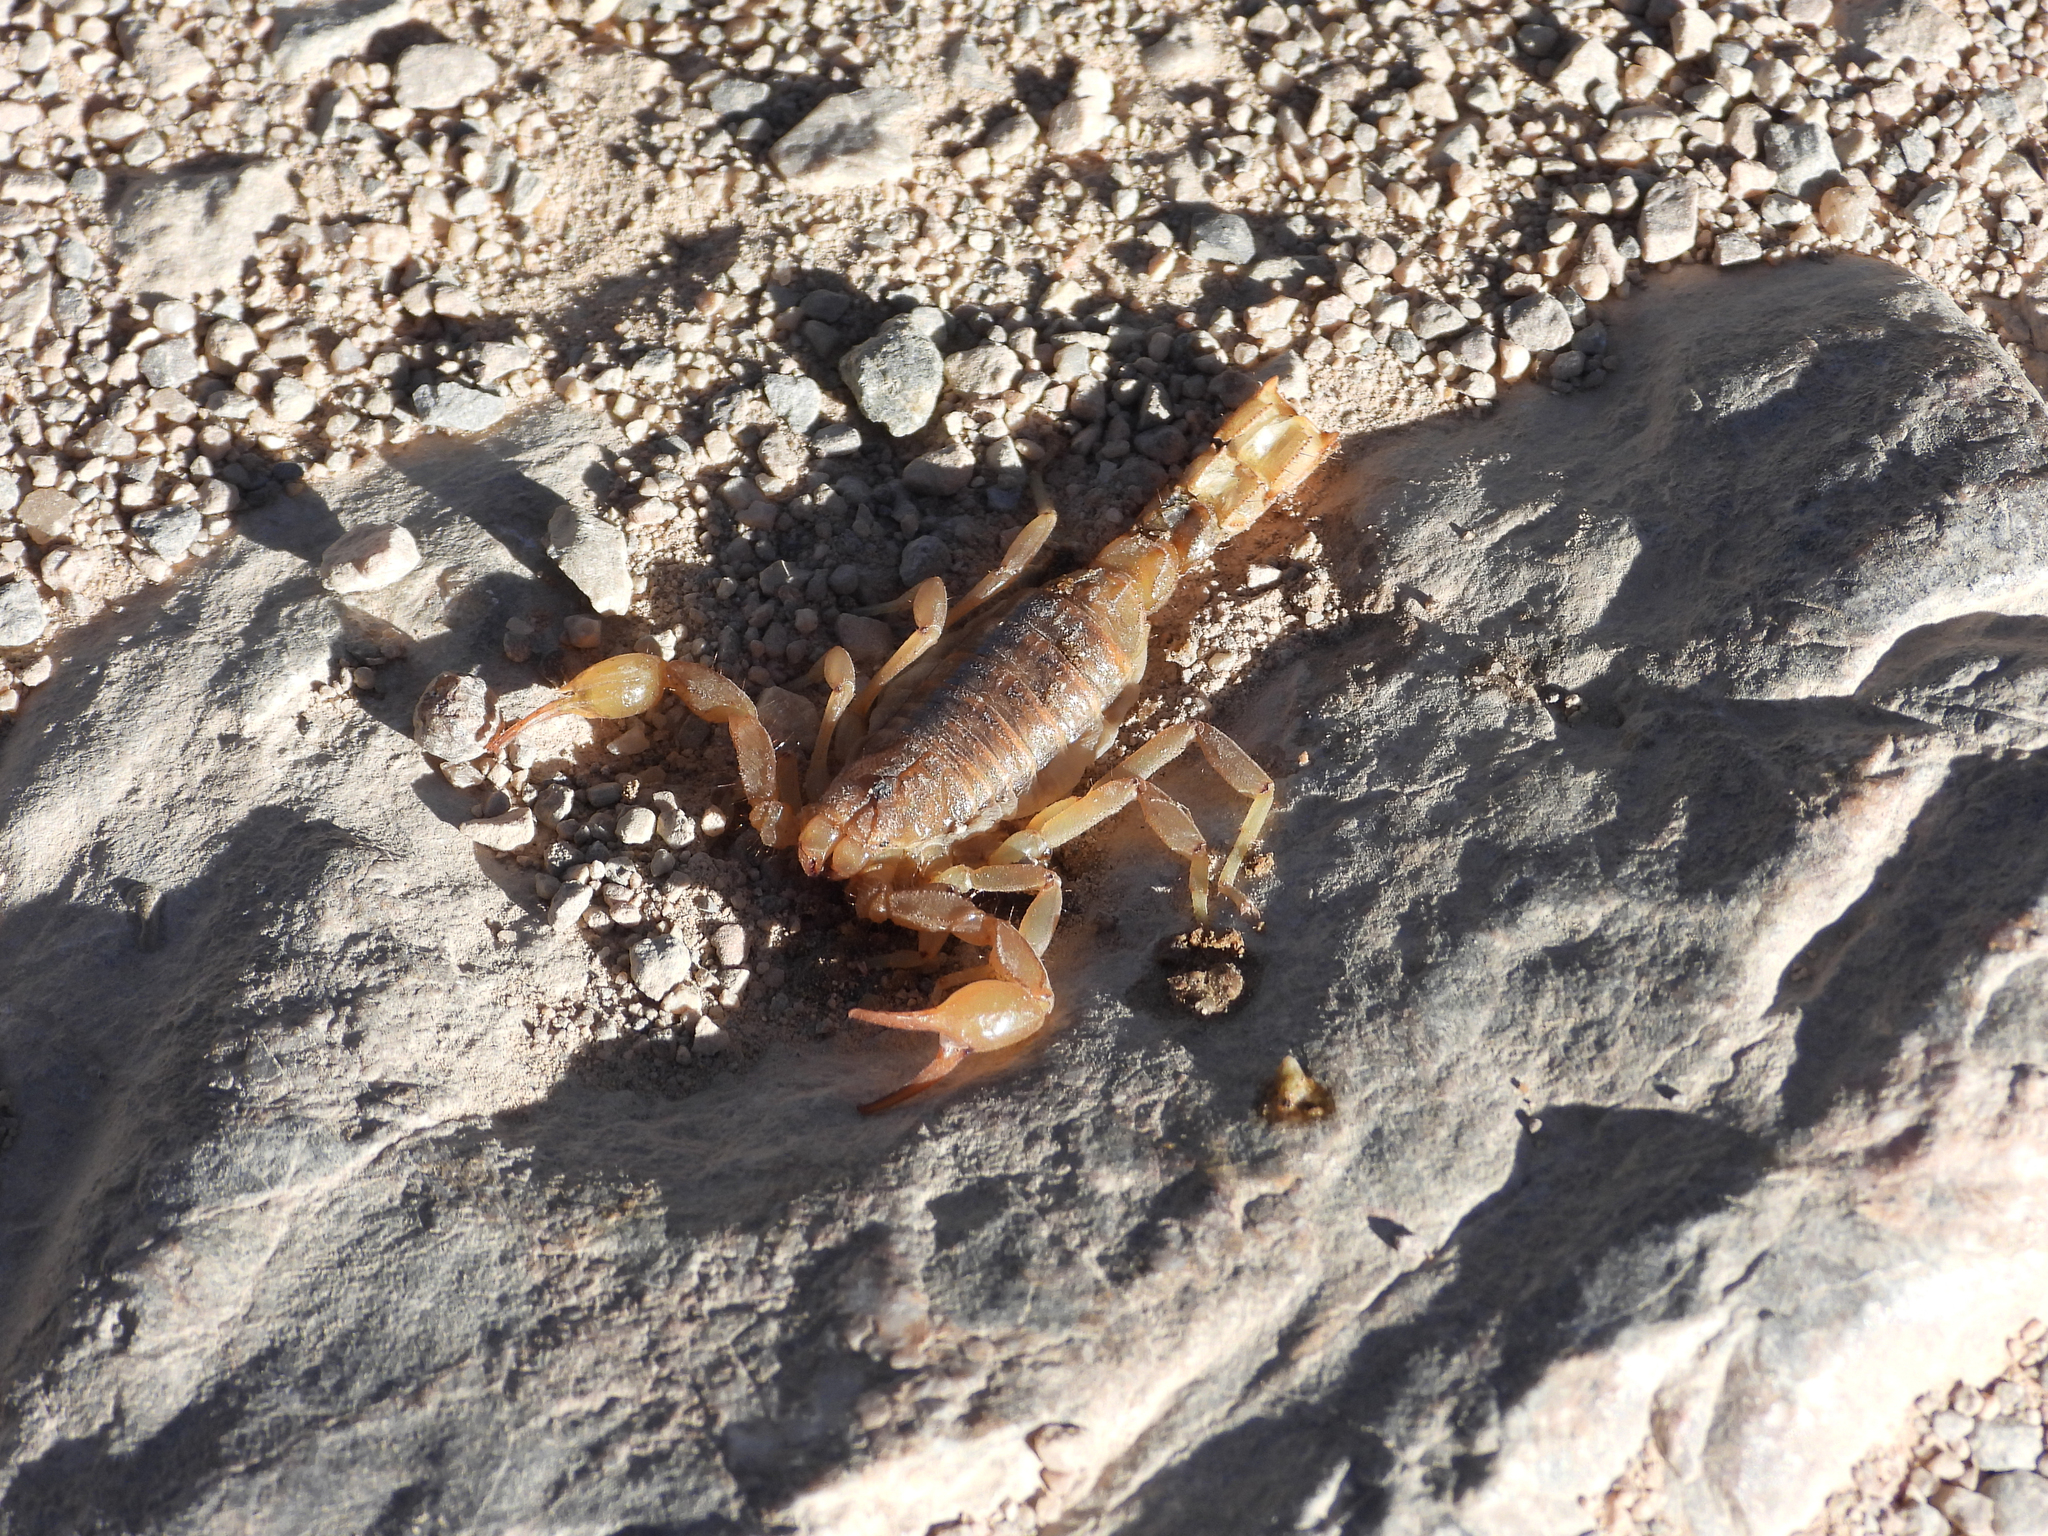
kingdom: Animalia
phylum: Arthropoda
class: Arachnida
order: Scorpiones
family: Vaejovidae
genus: Paravaejovis
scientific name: Paravaejovis spinigerus
